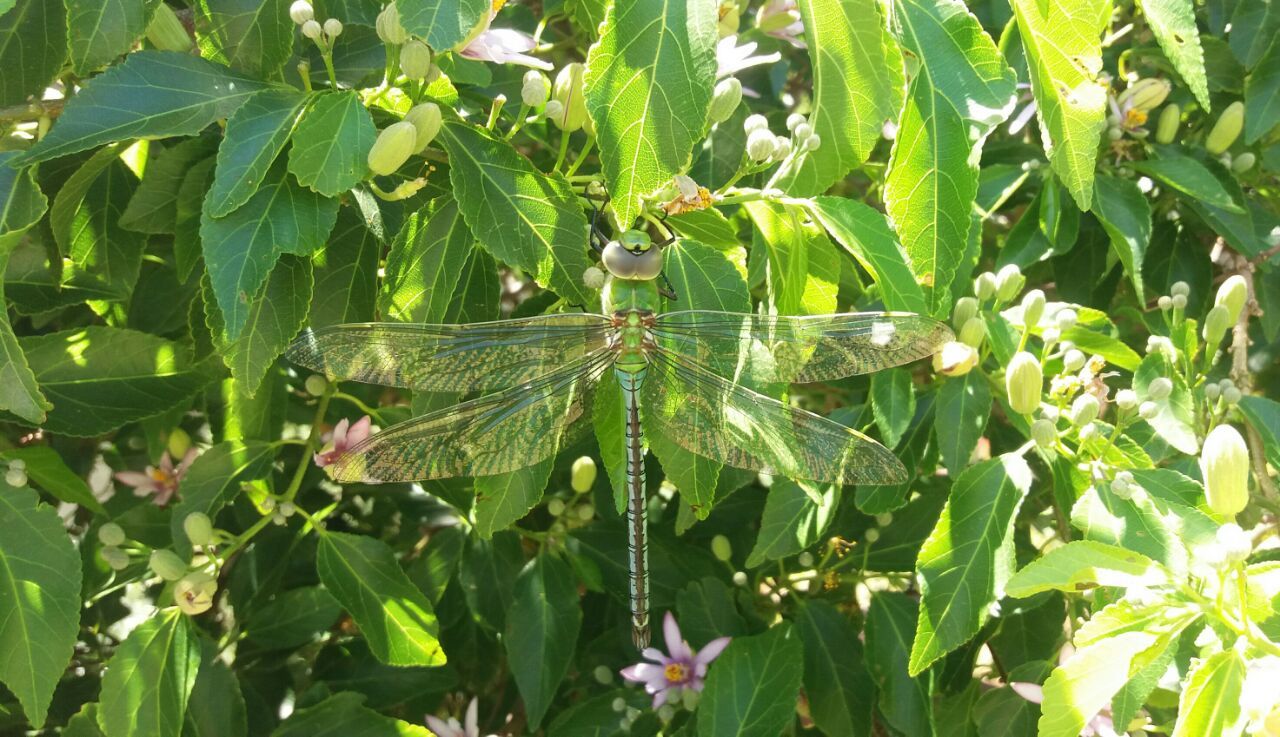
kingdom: Animalia
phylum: Arthropoda
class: Insecta
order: Odonata
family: Aeshnidae
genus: Anax
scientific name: Anax imperator
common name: Emperor dragonfly
